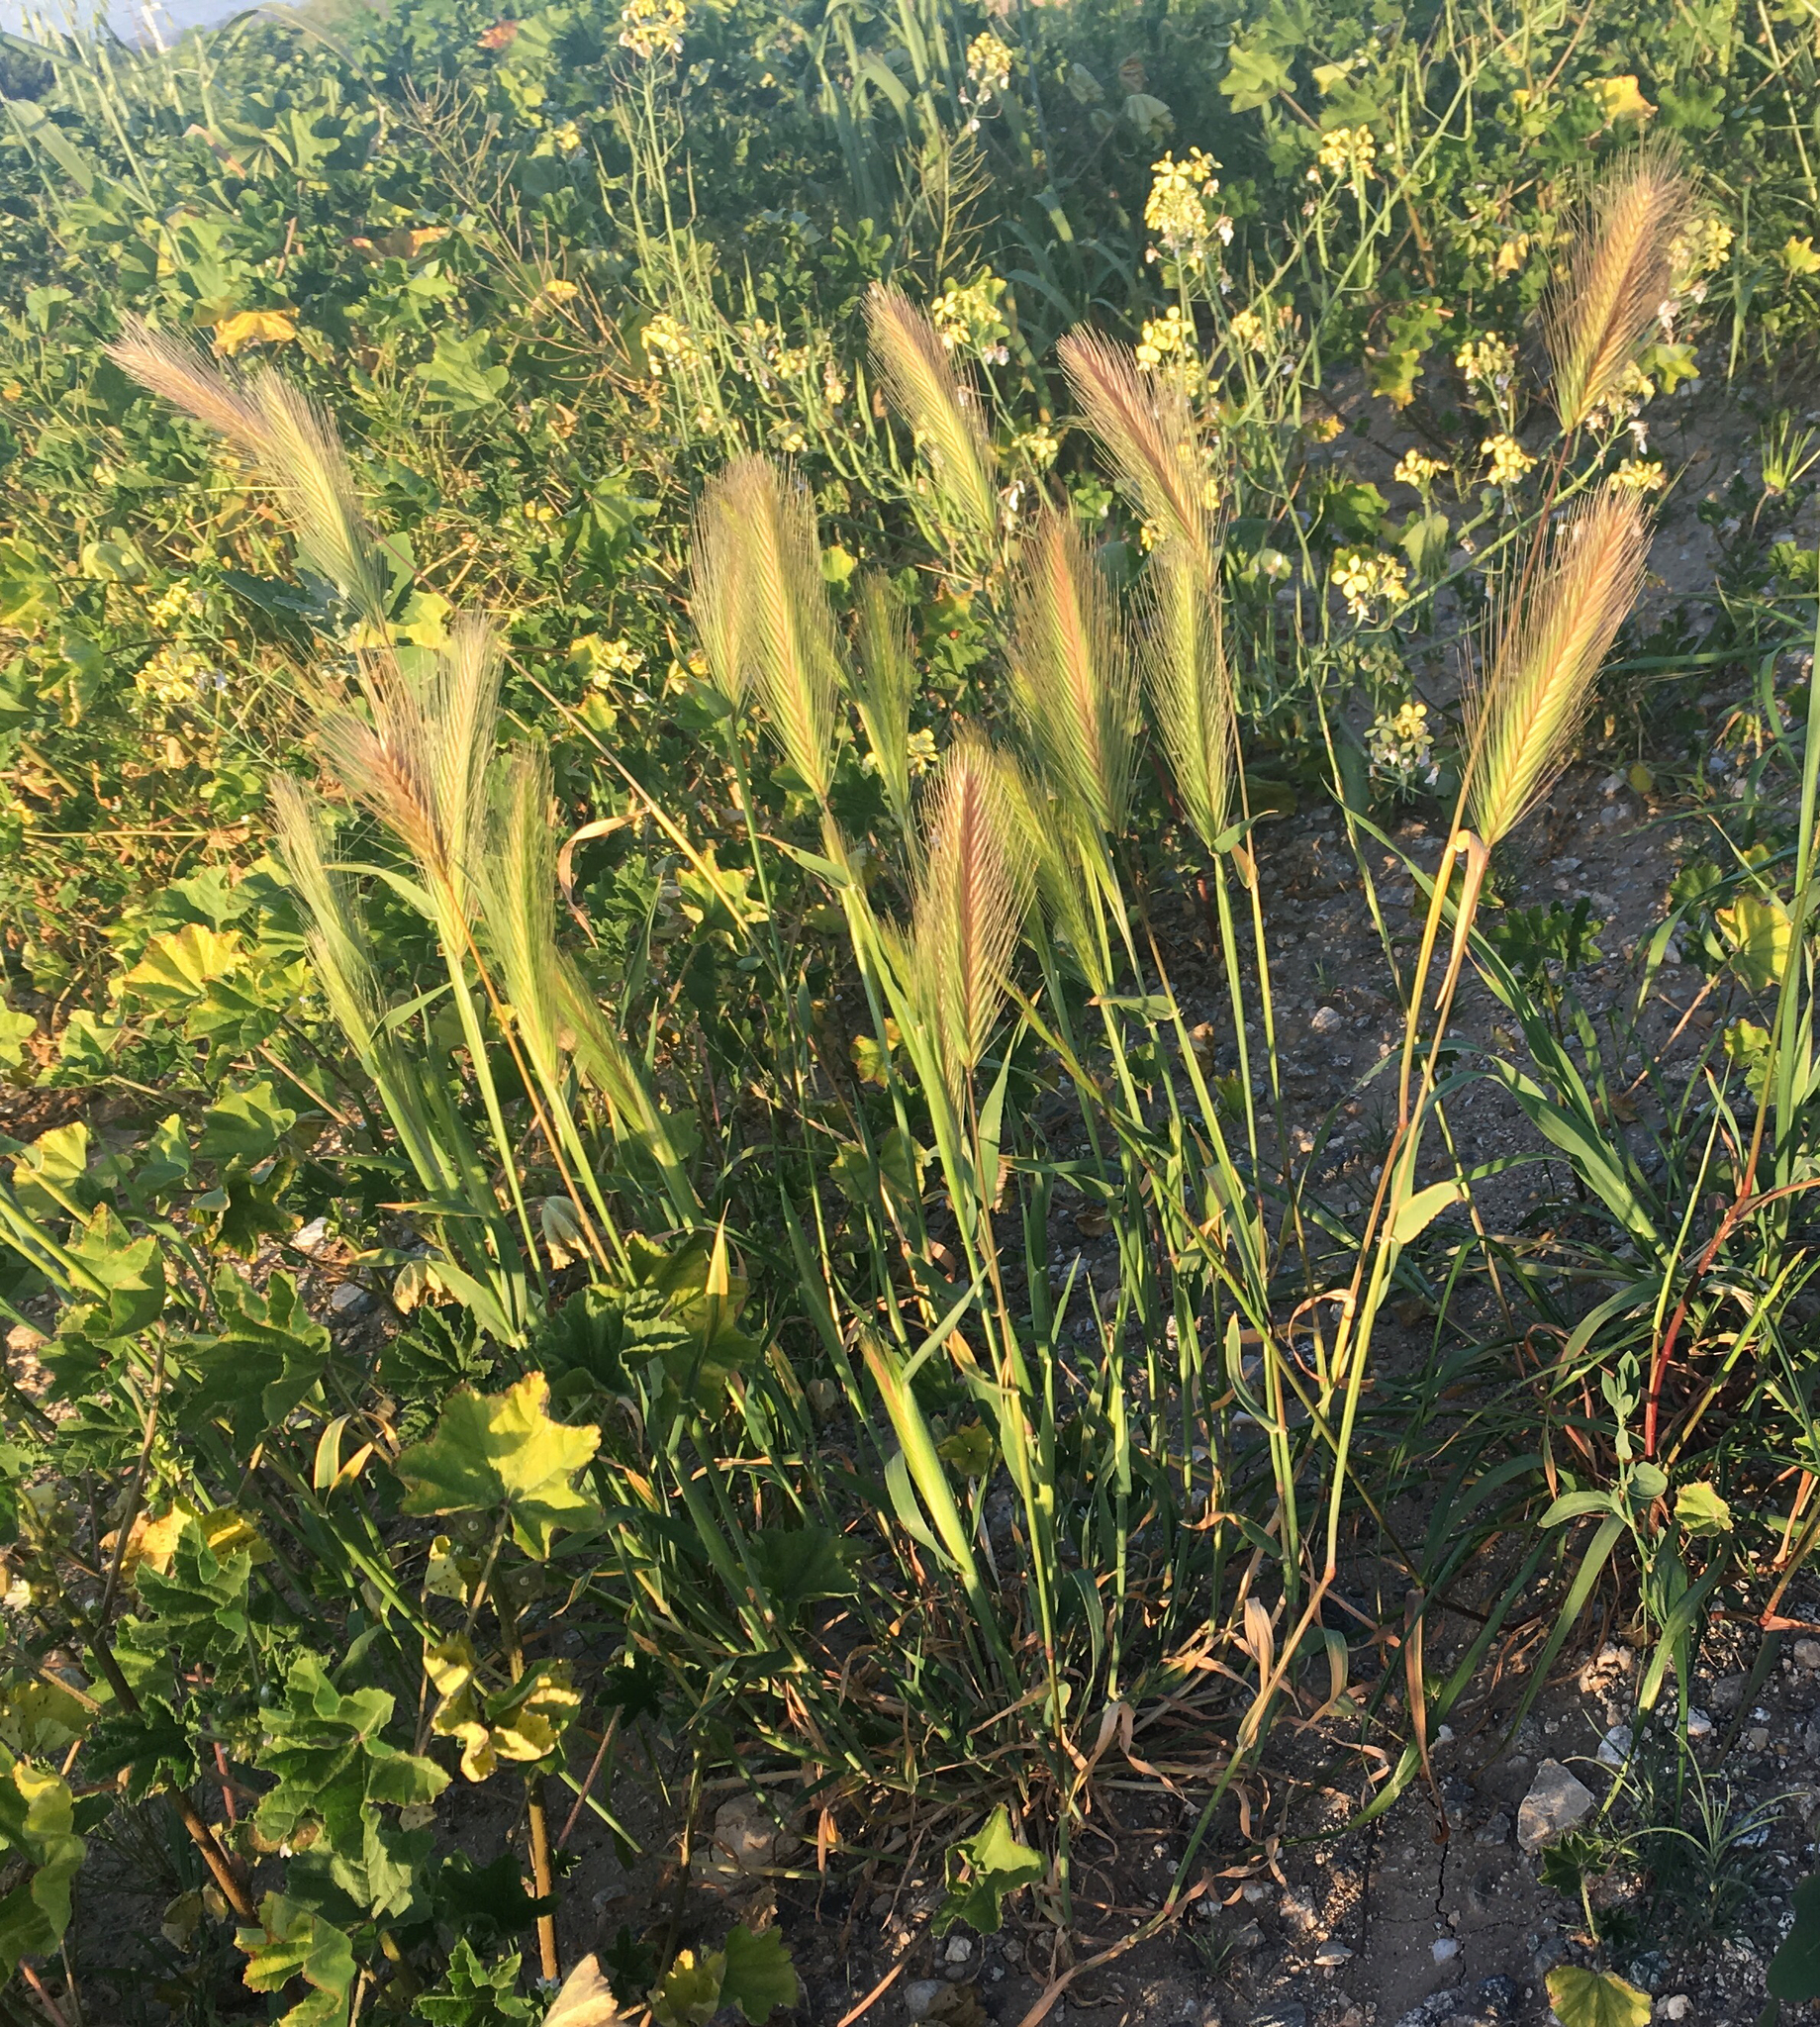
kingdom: Plantae
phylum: Tracheophyta
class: Liliopsida
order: Poales
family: Poaceae
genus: Hordeum
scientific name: Hordeum murinum
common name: Wall barley
